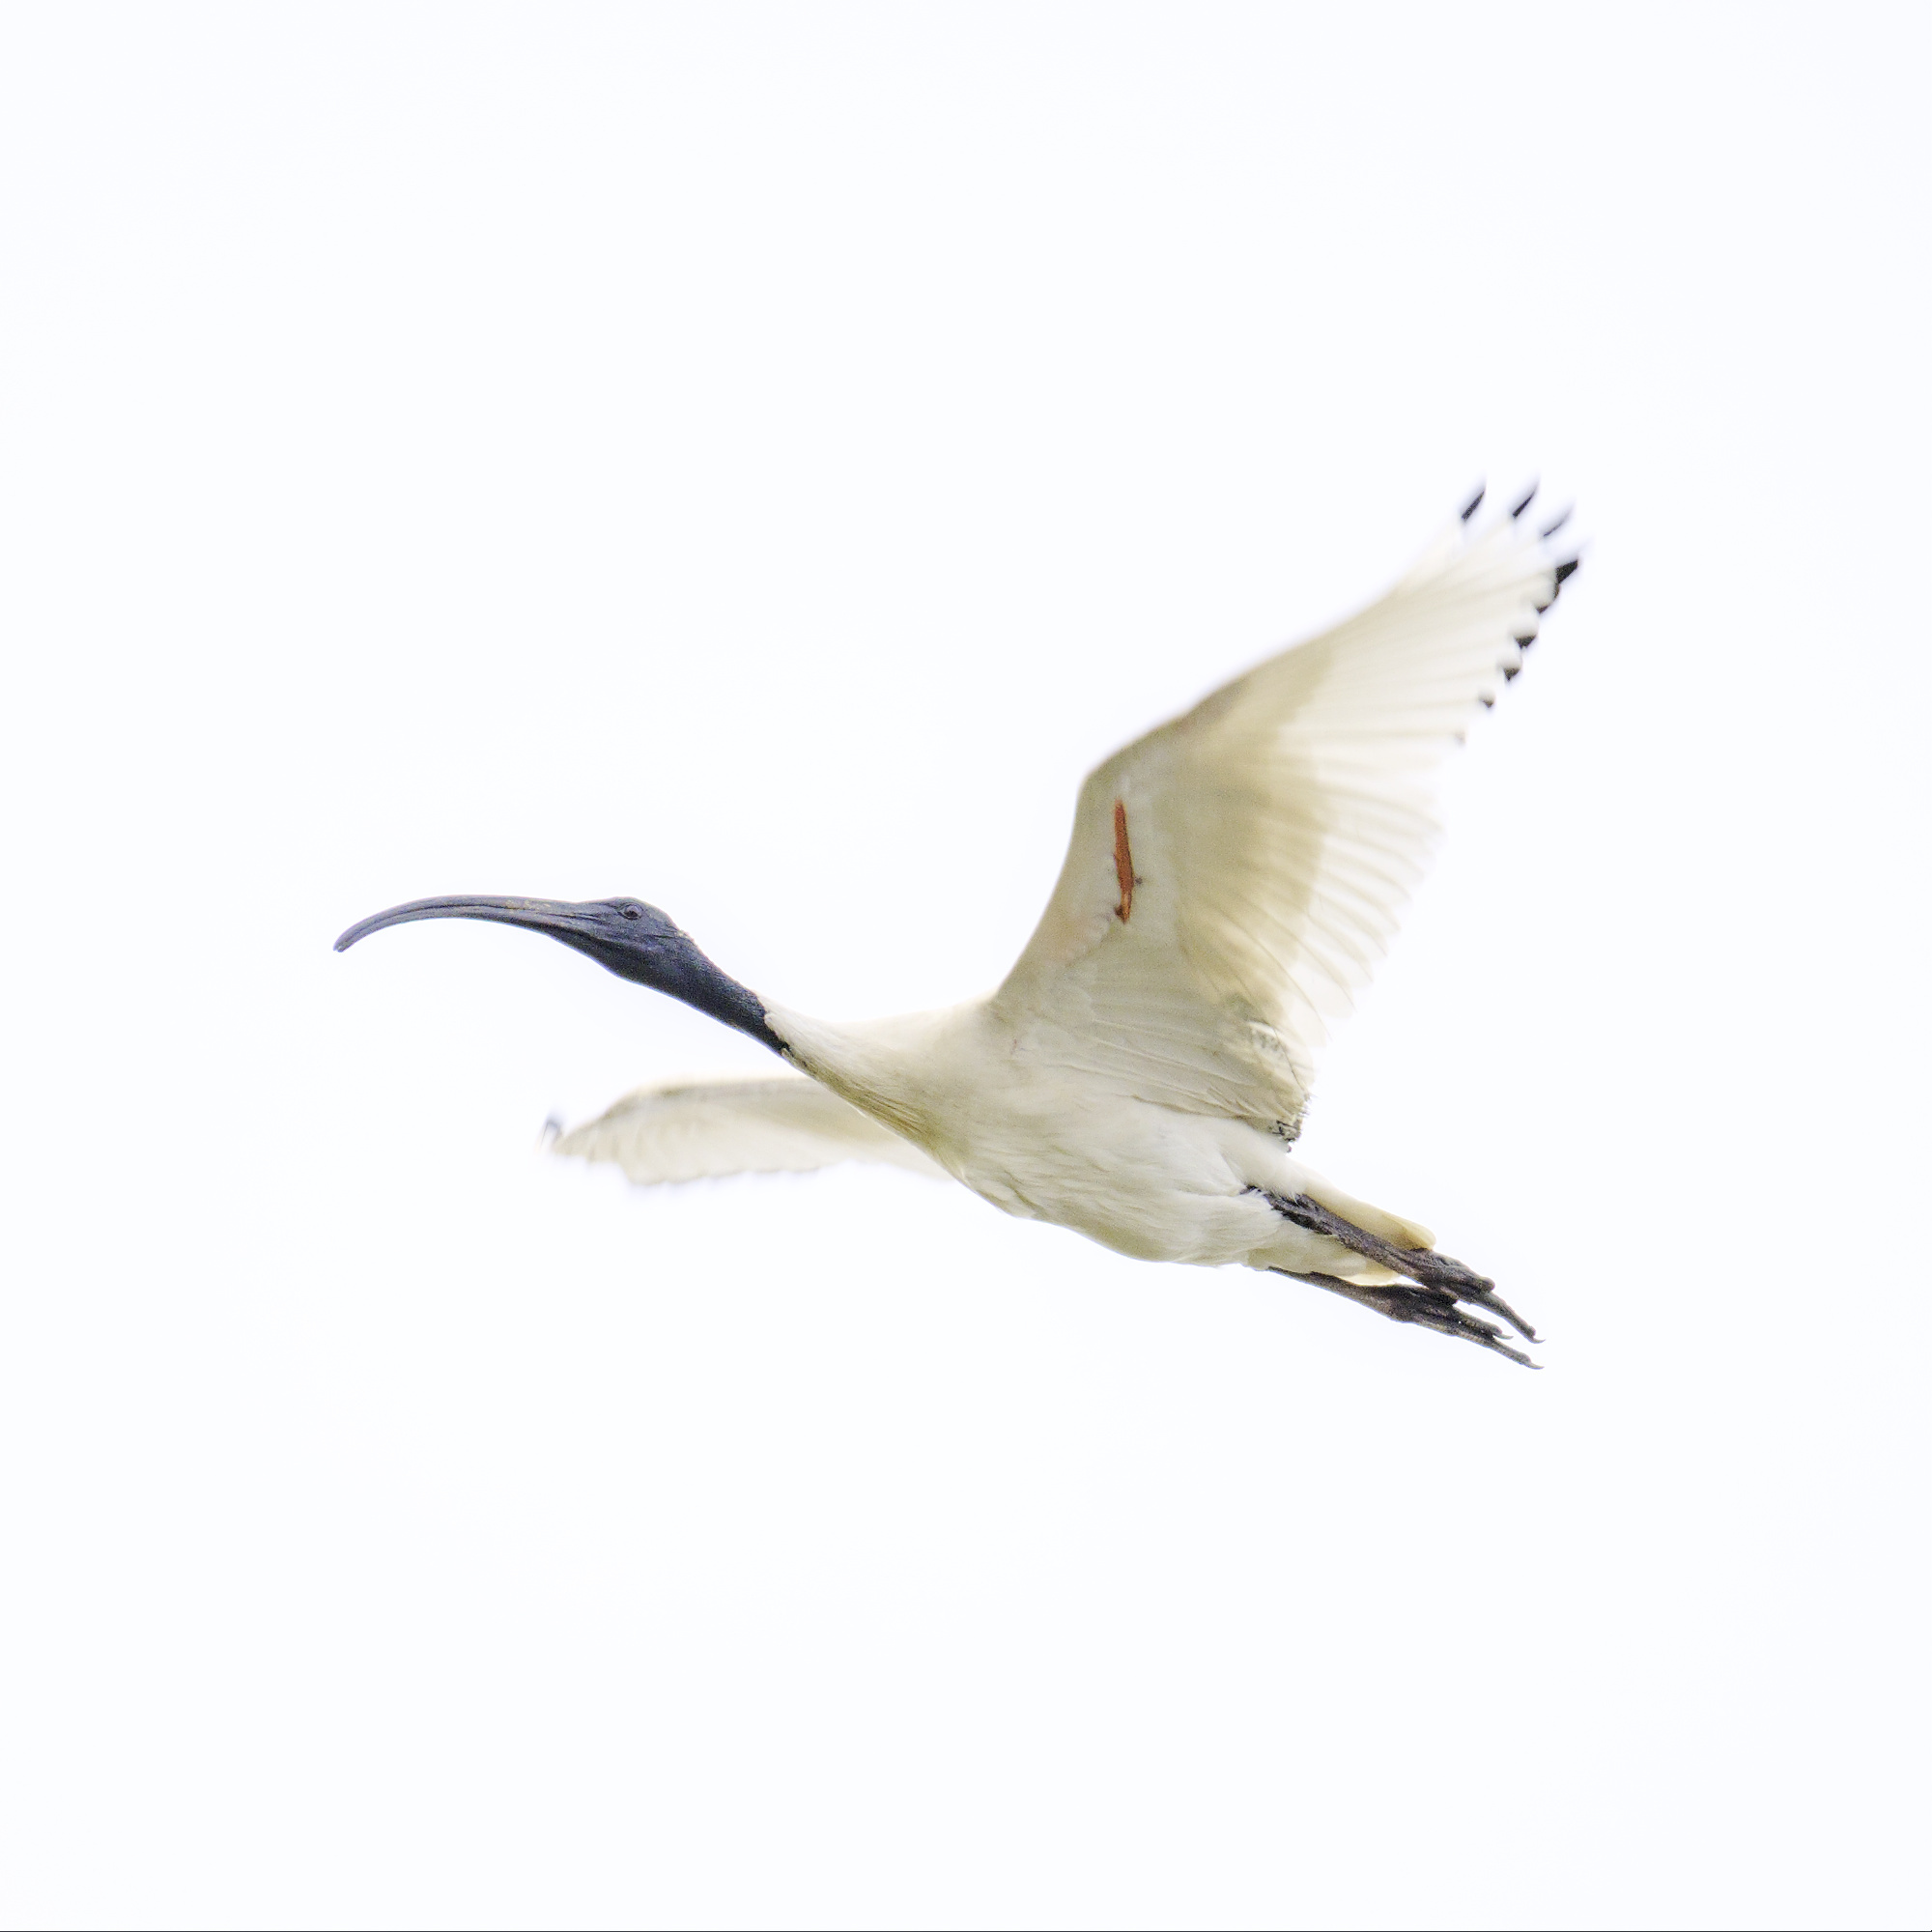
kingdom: Animalia
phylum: Chordata
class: Aves
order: Pelecaniformes
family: Threskiornithidae
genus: Threskiornis
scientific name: Threskiornis molucca
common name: Australian white ibis
